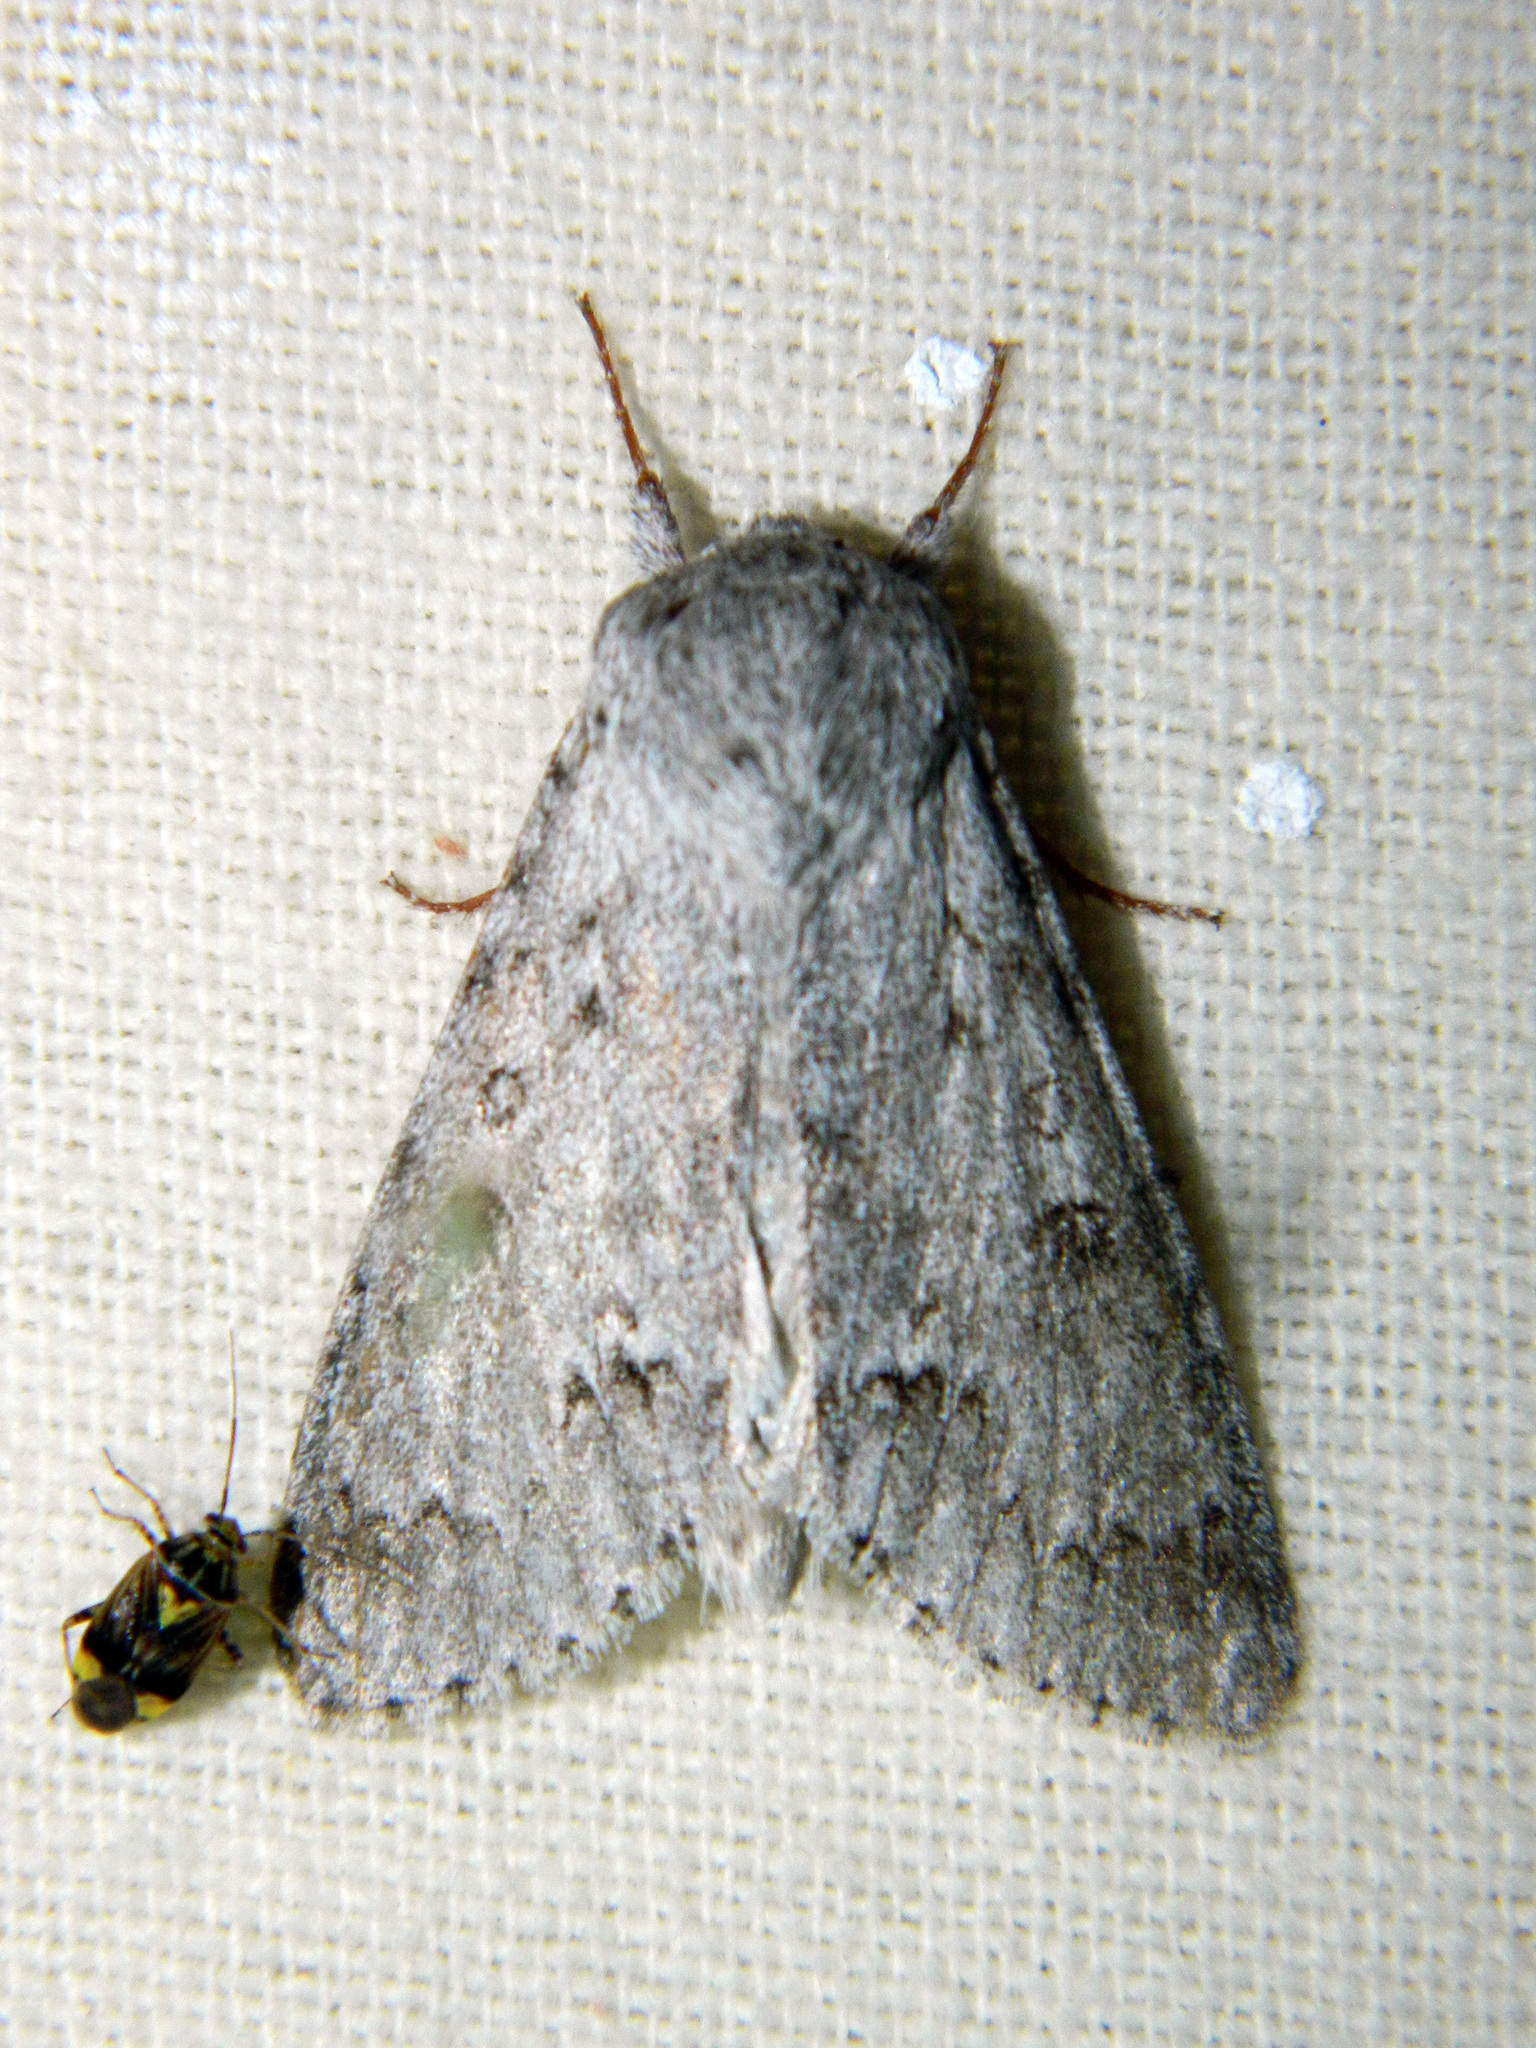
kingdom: Animalia
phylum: Arthropoda
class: Insecta
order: Lepidoptera
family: Noctuidae
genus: Acronicta
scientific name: Acronicta insita
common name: Large gray dagger
